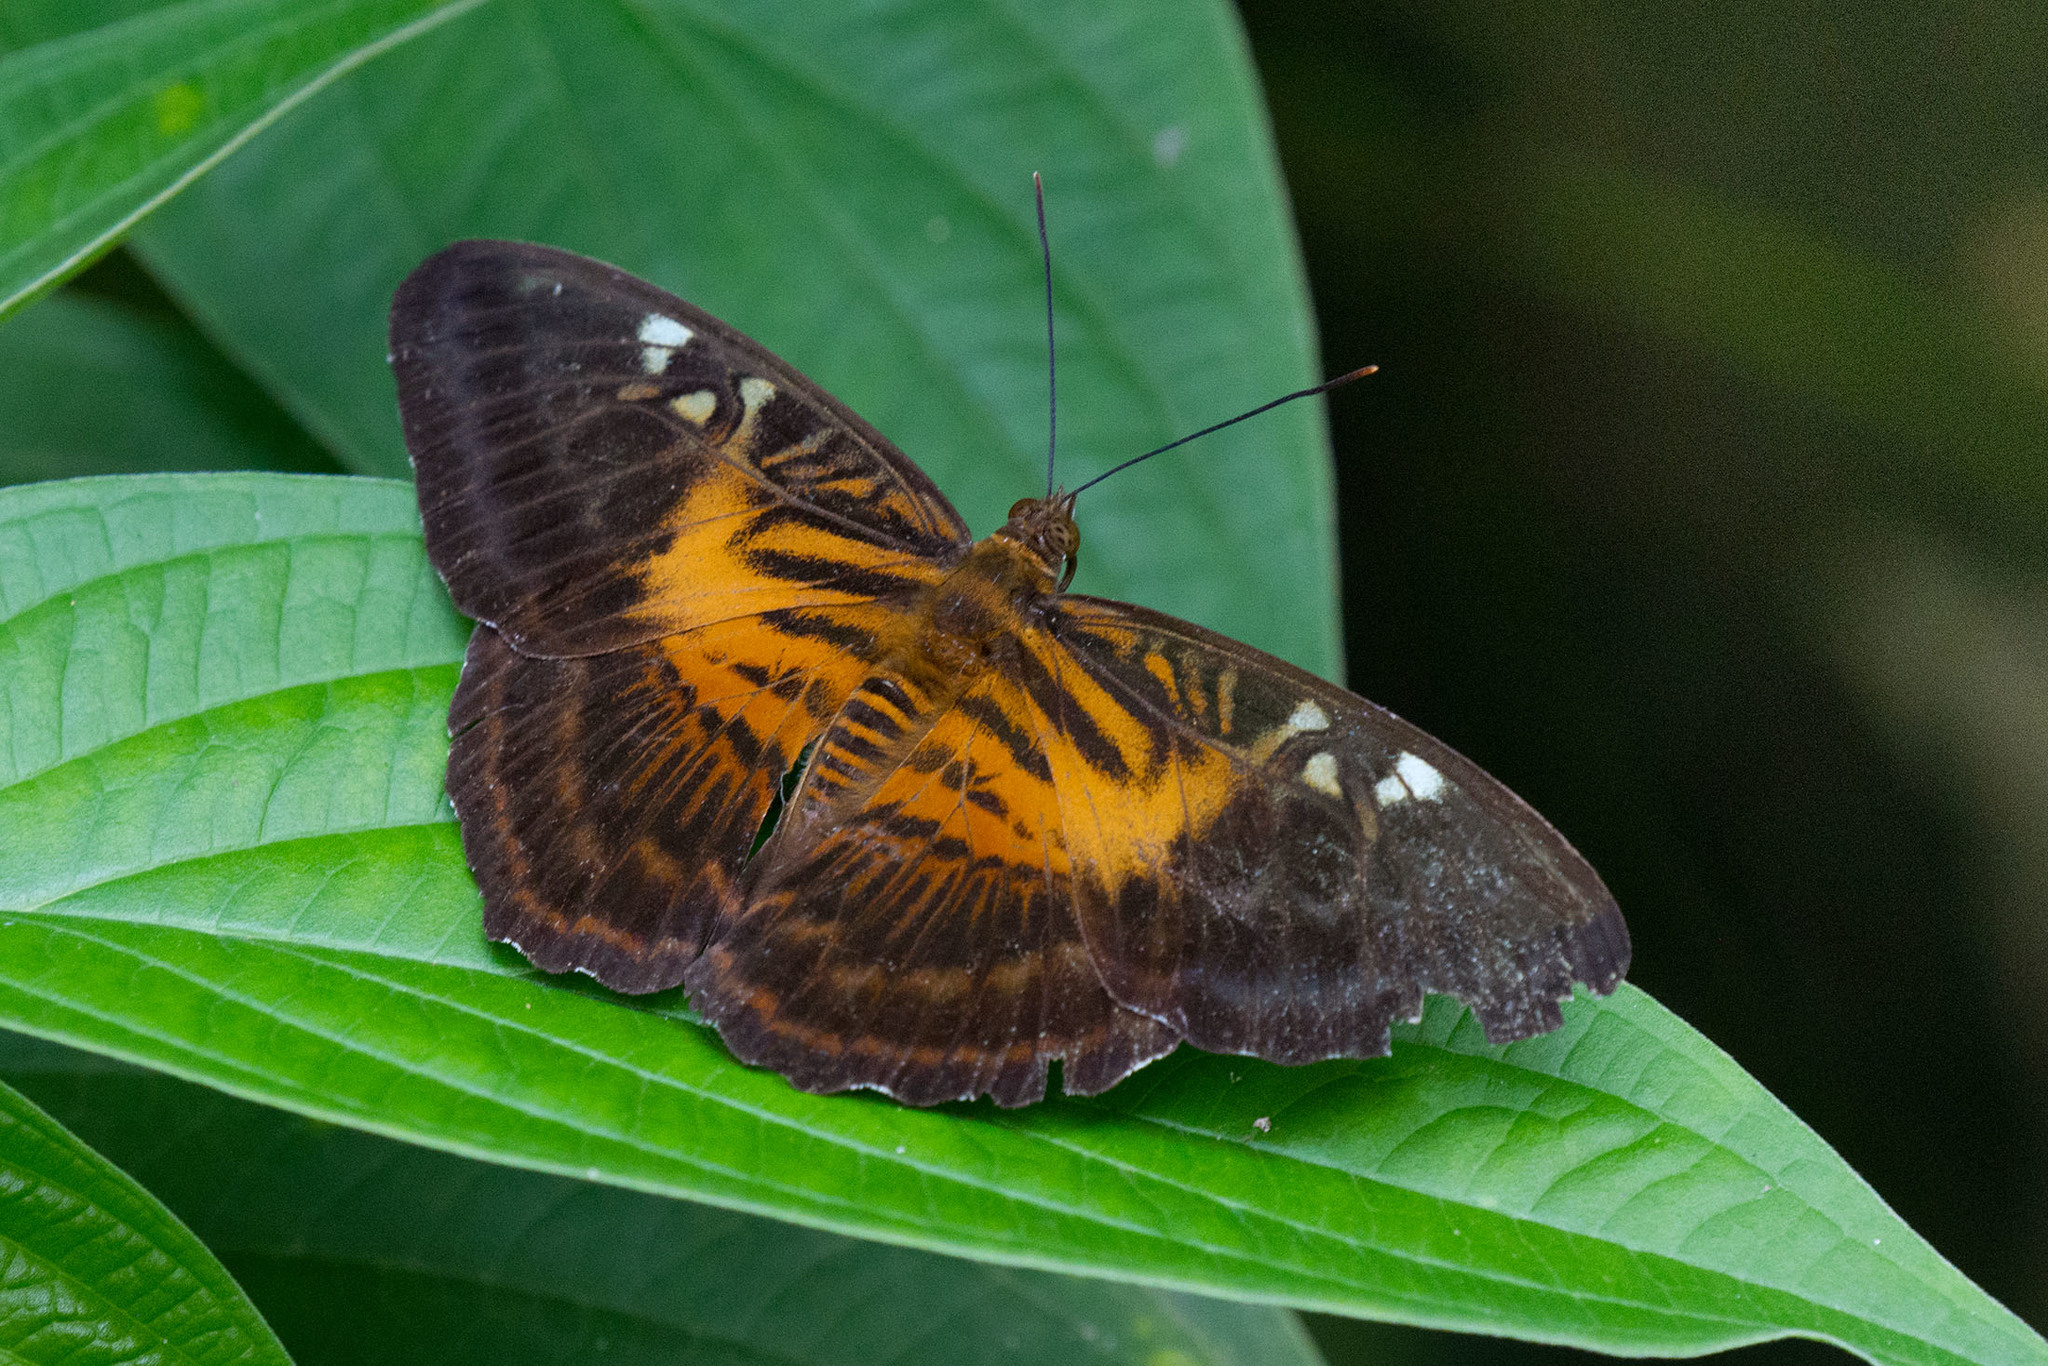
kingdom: Animalia
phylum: Arthropoda
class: Insecta
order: Lepidoptera
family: Nymphalidae
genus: Parthenos
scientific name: Parthenos tigrina
